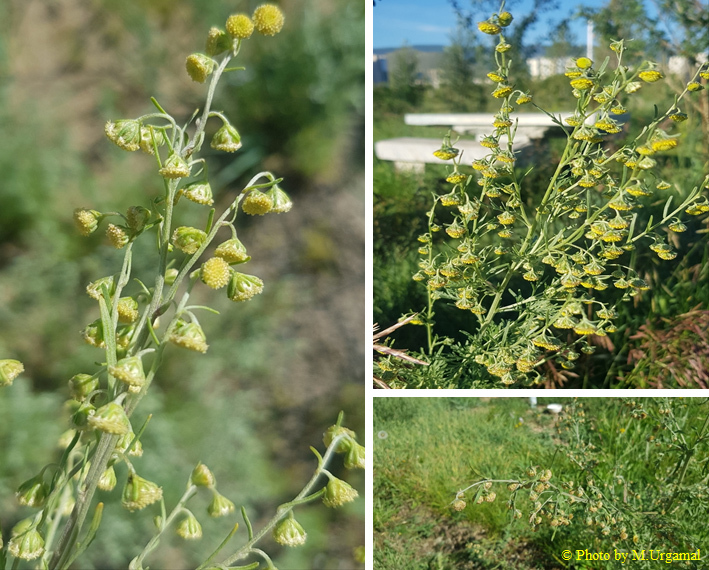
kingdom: Plantae
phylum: Tracheophyta
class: Magnoliopsida
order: Asterales
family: Asteraceae
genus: Artemisia
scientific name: Artemisia macrocephala
